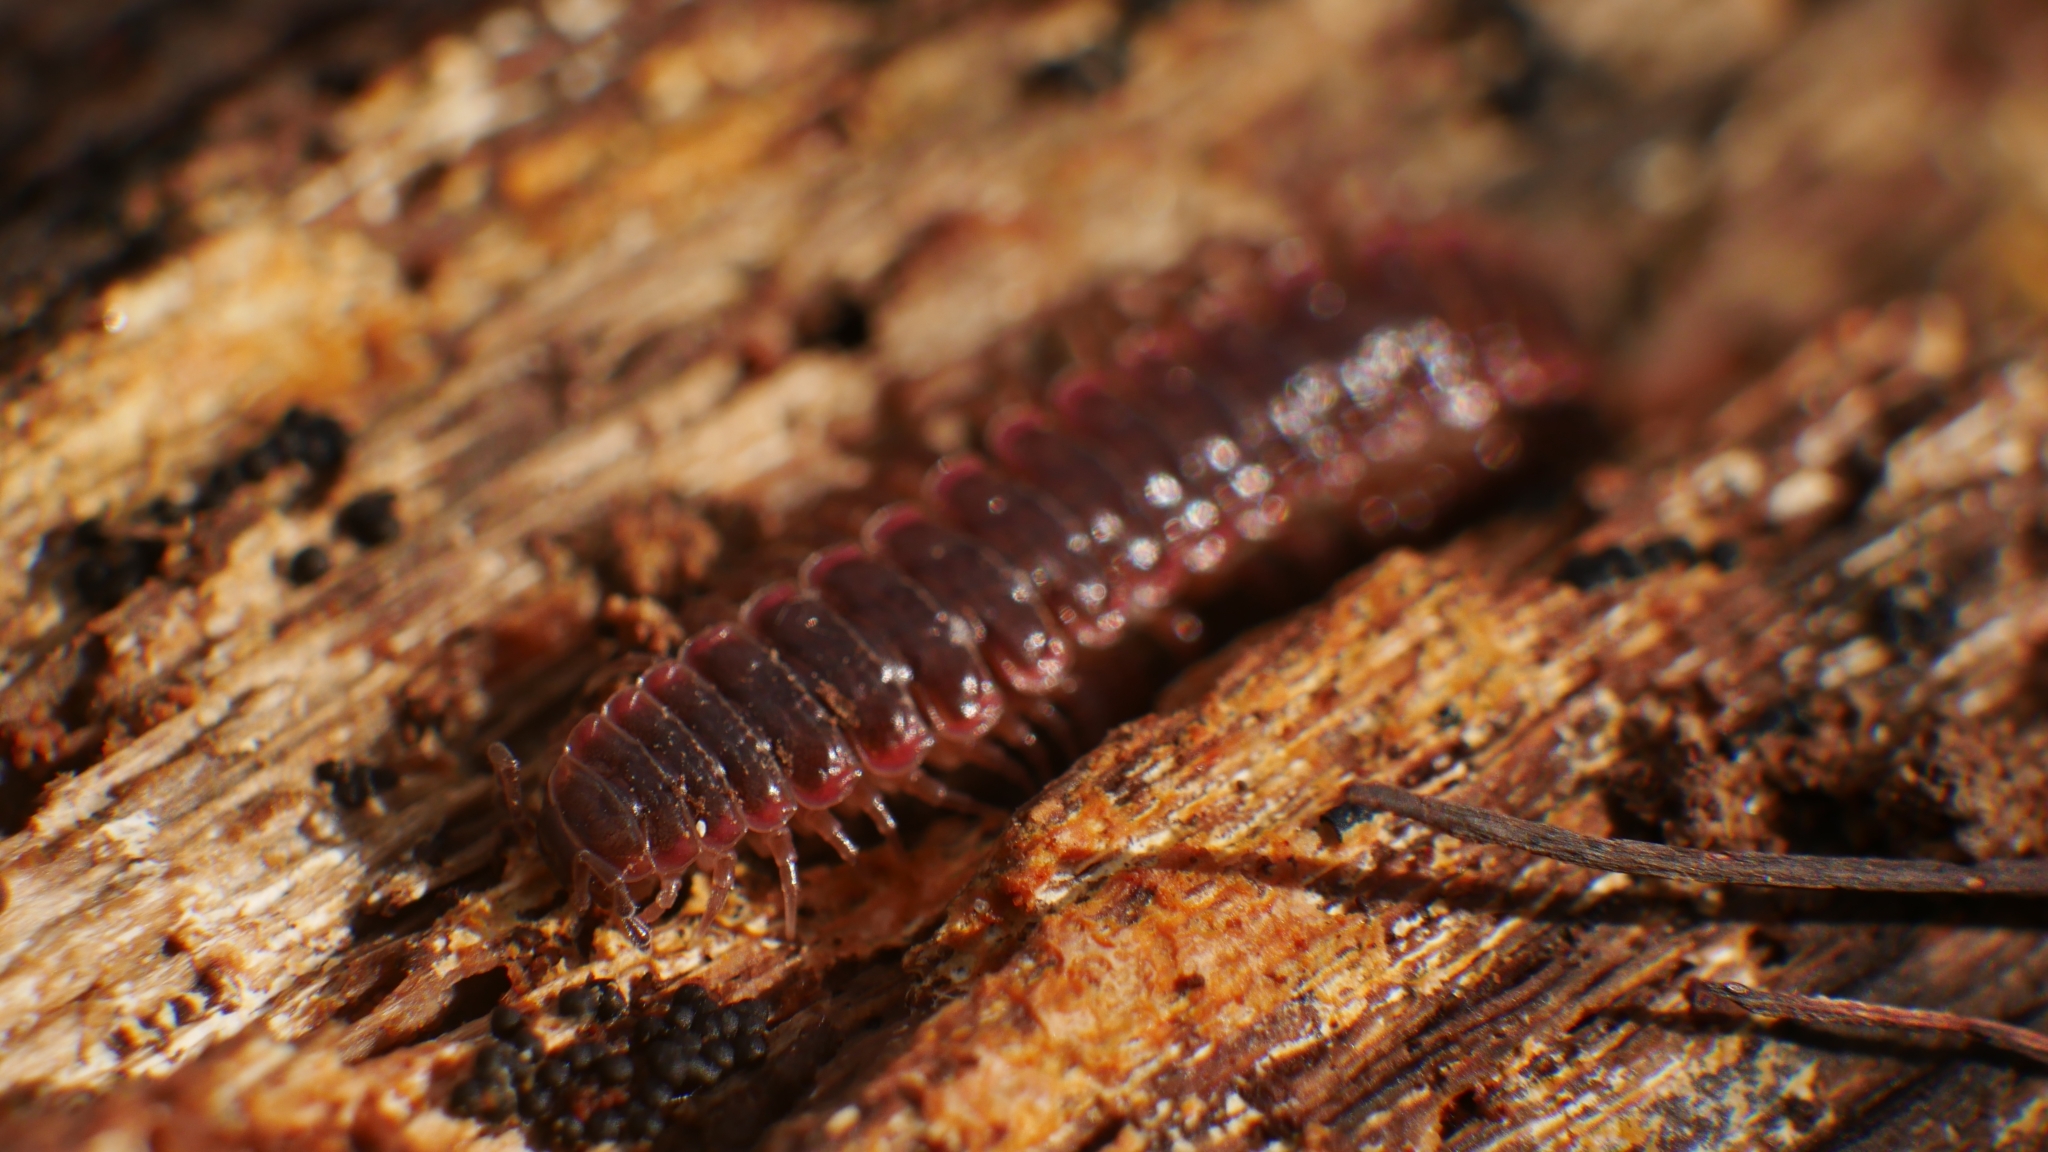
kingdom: Animalia
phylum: Arthropoda
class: Diplopoda
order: Polydesmida
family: Polydesmidae
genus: Pseudopolydesmus
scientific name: Pseudopolydesmus serratus
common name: Common pink flat-back millipede
